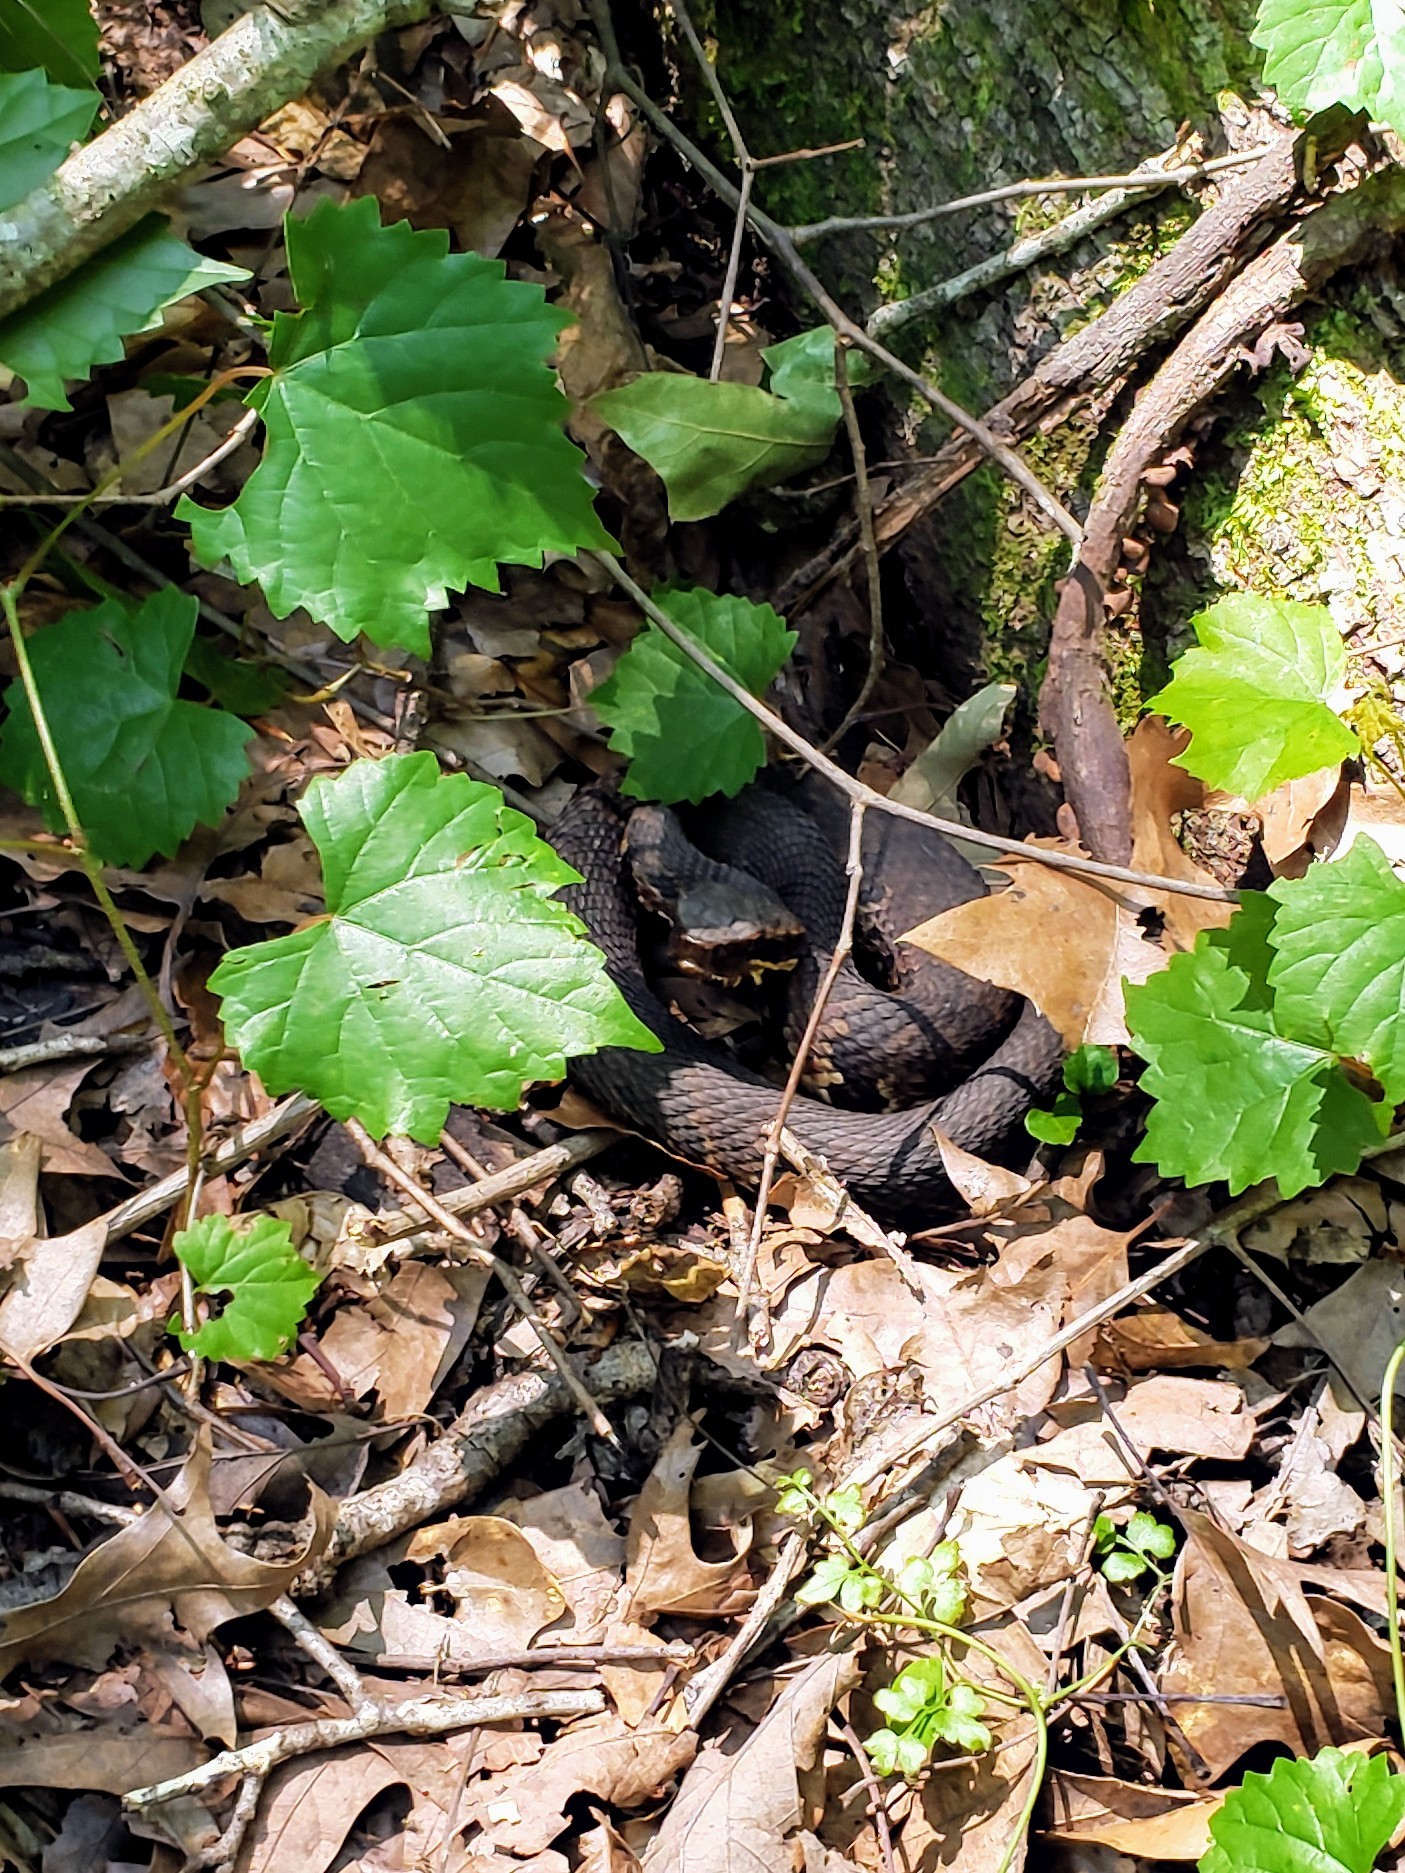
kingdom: Animalia
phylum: Chordata
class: Squamata
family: Viperidae
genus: Agkistrodon
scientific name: Agkistrodon piscivorus
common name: Cottonmouth
